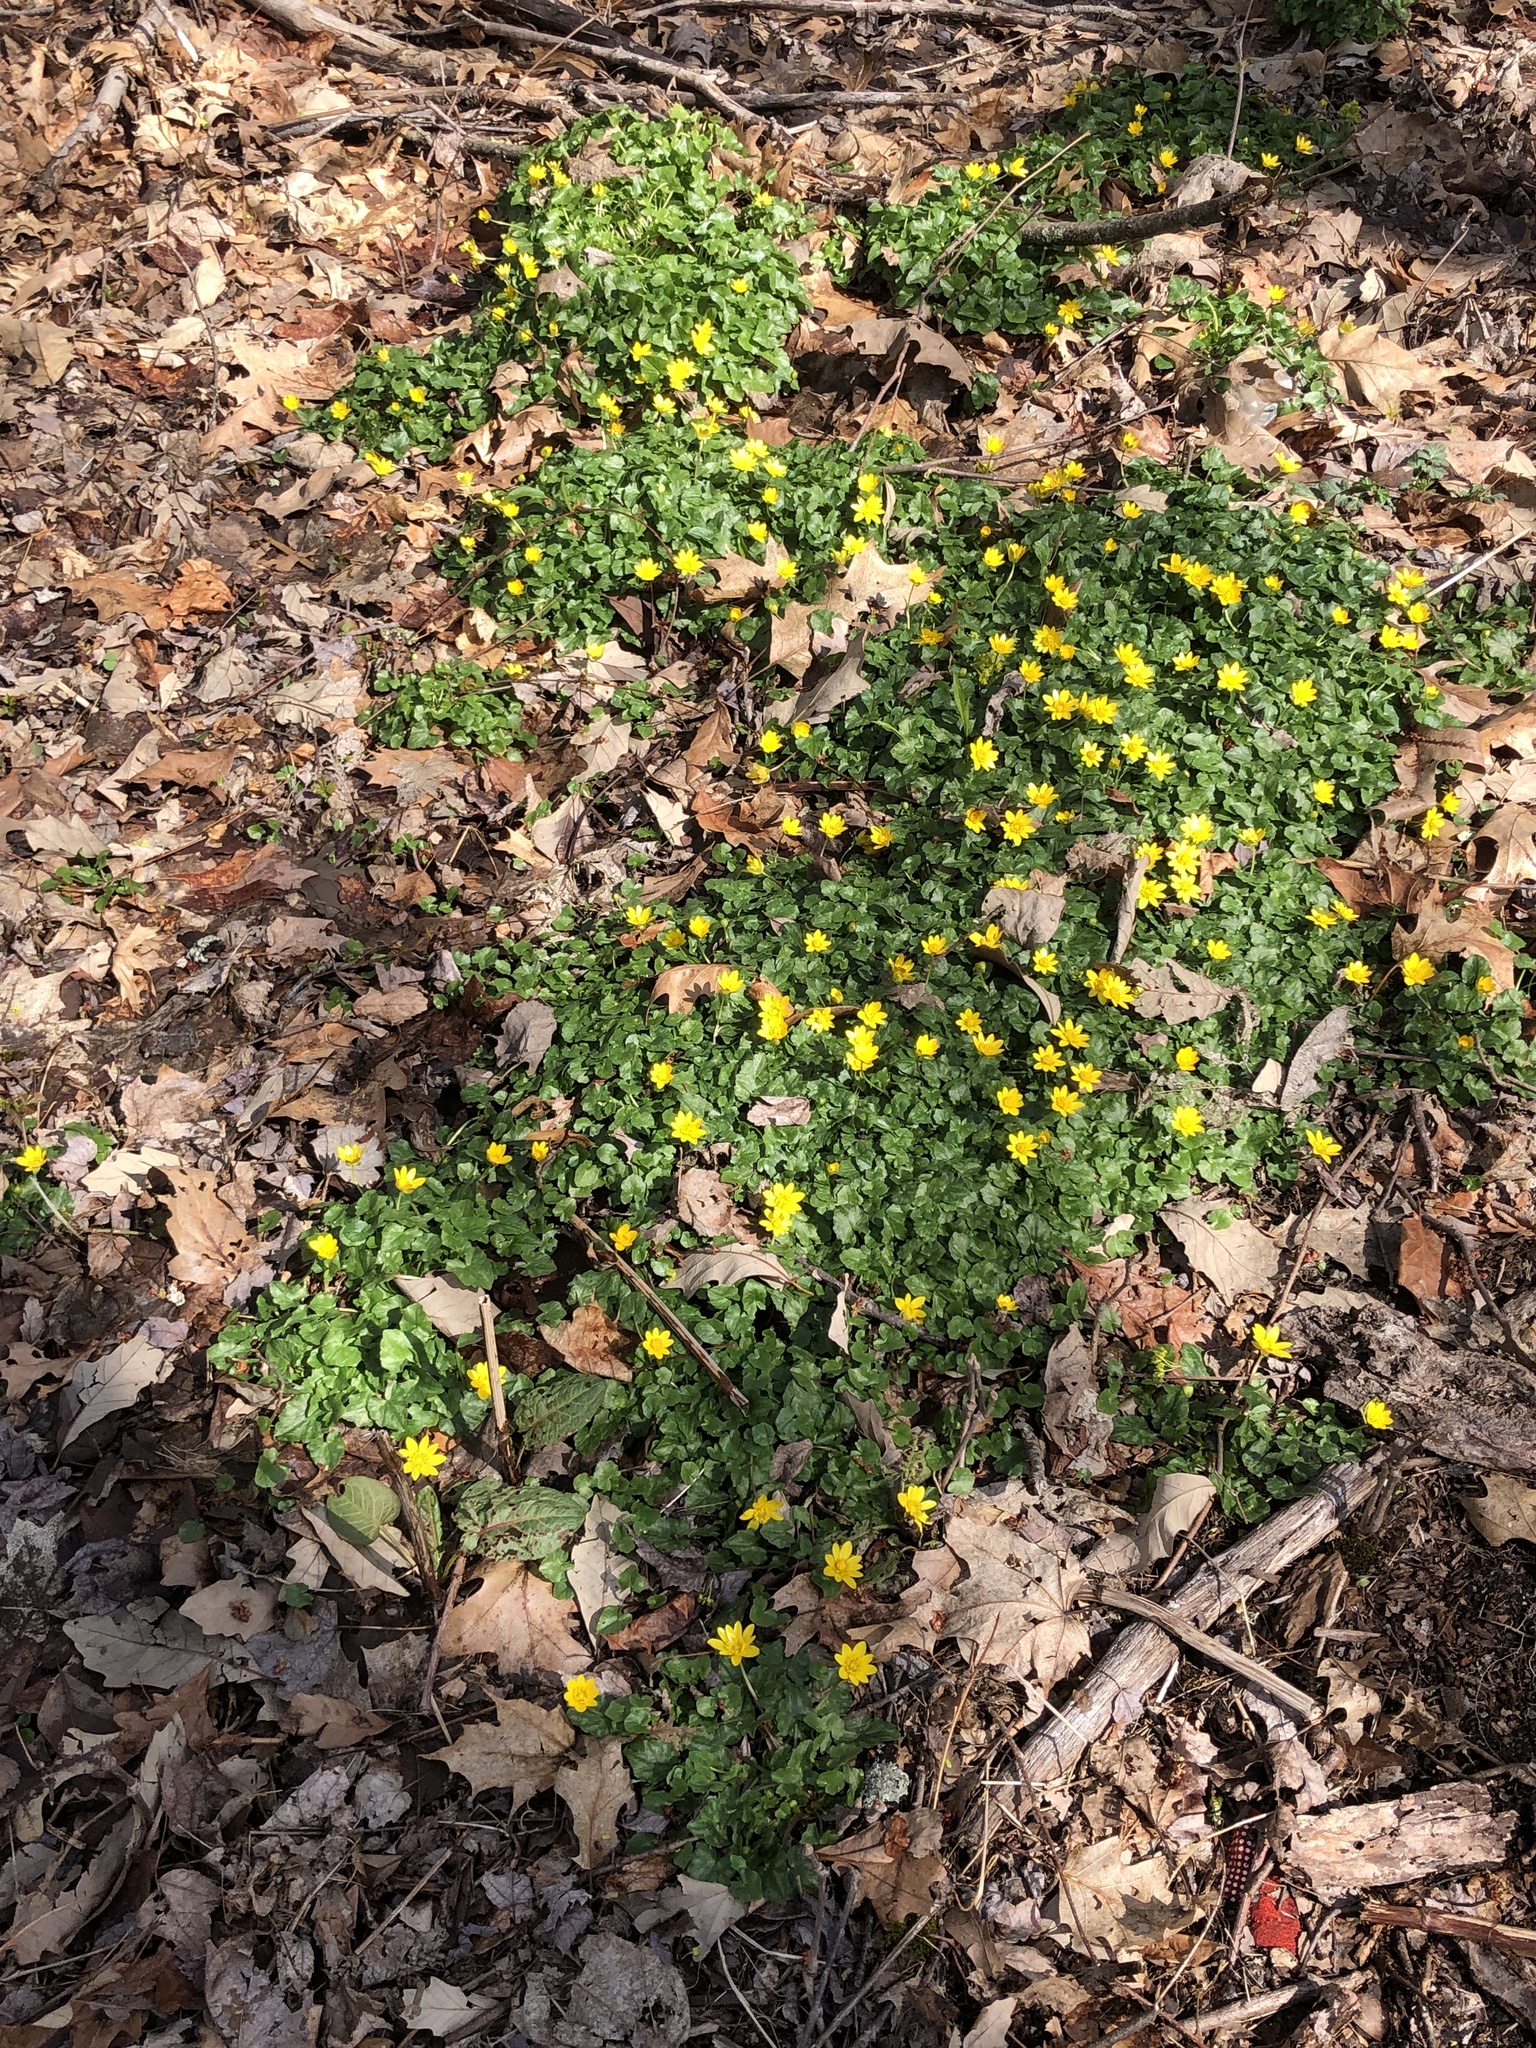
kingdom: Plantae
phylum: Tracheophyta
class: Magnoliopsida
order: Ranunculales
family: Ranunculaceae
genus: Ficaria
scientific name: Ficaria verna
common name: Lesser celandine
